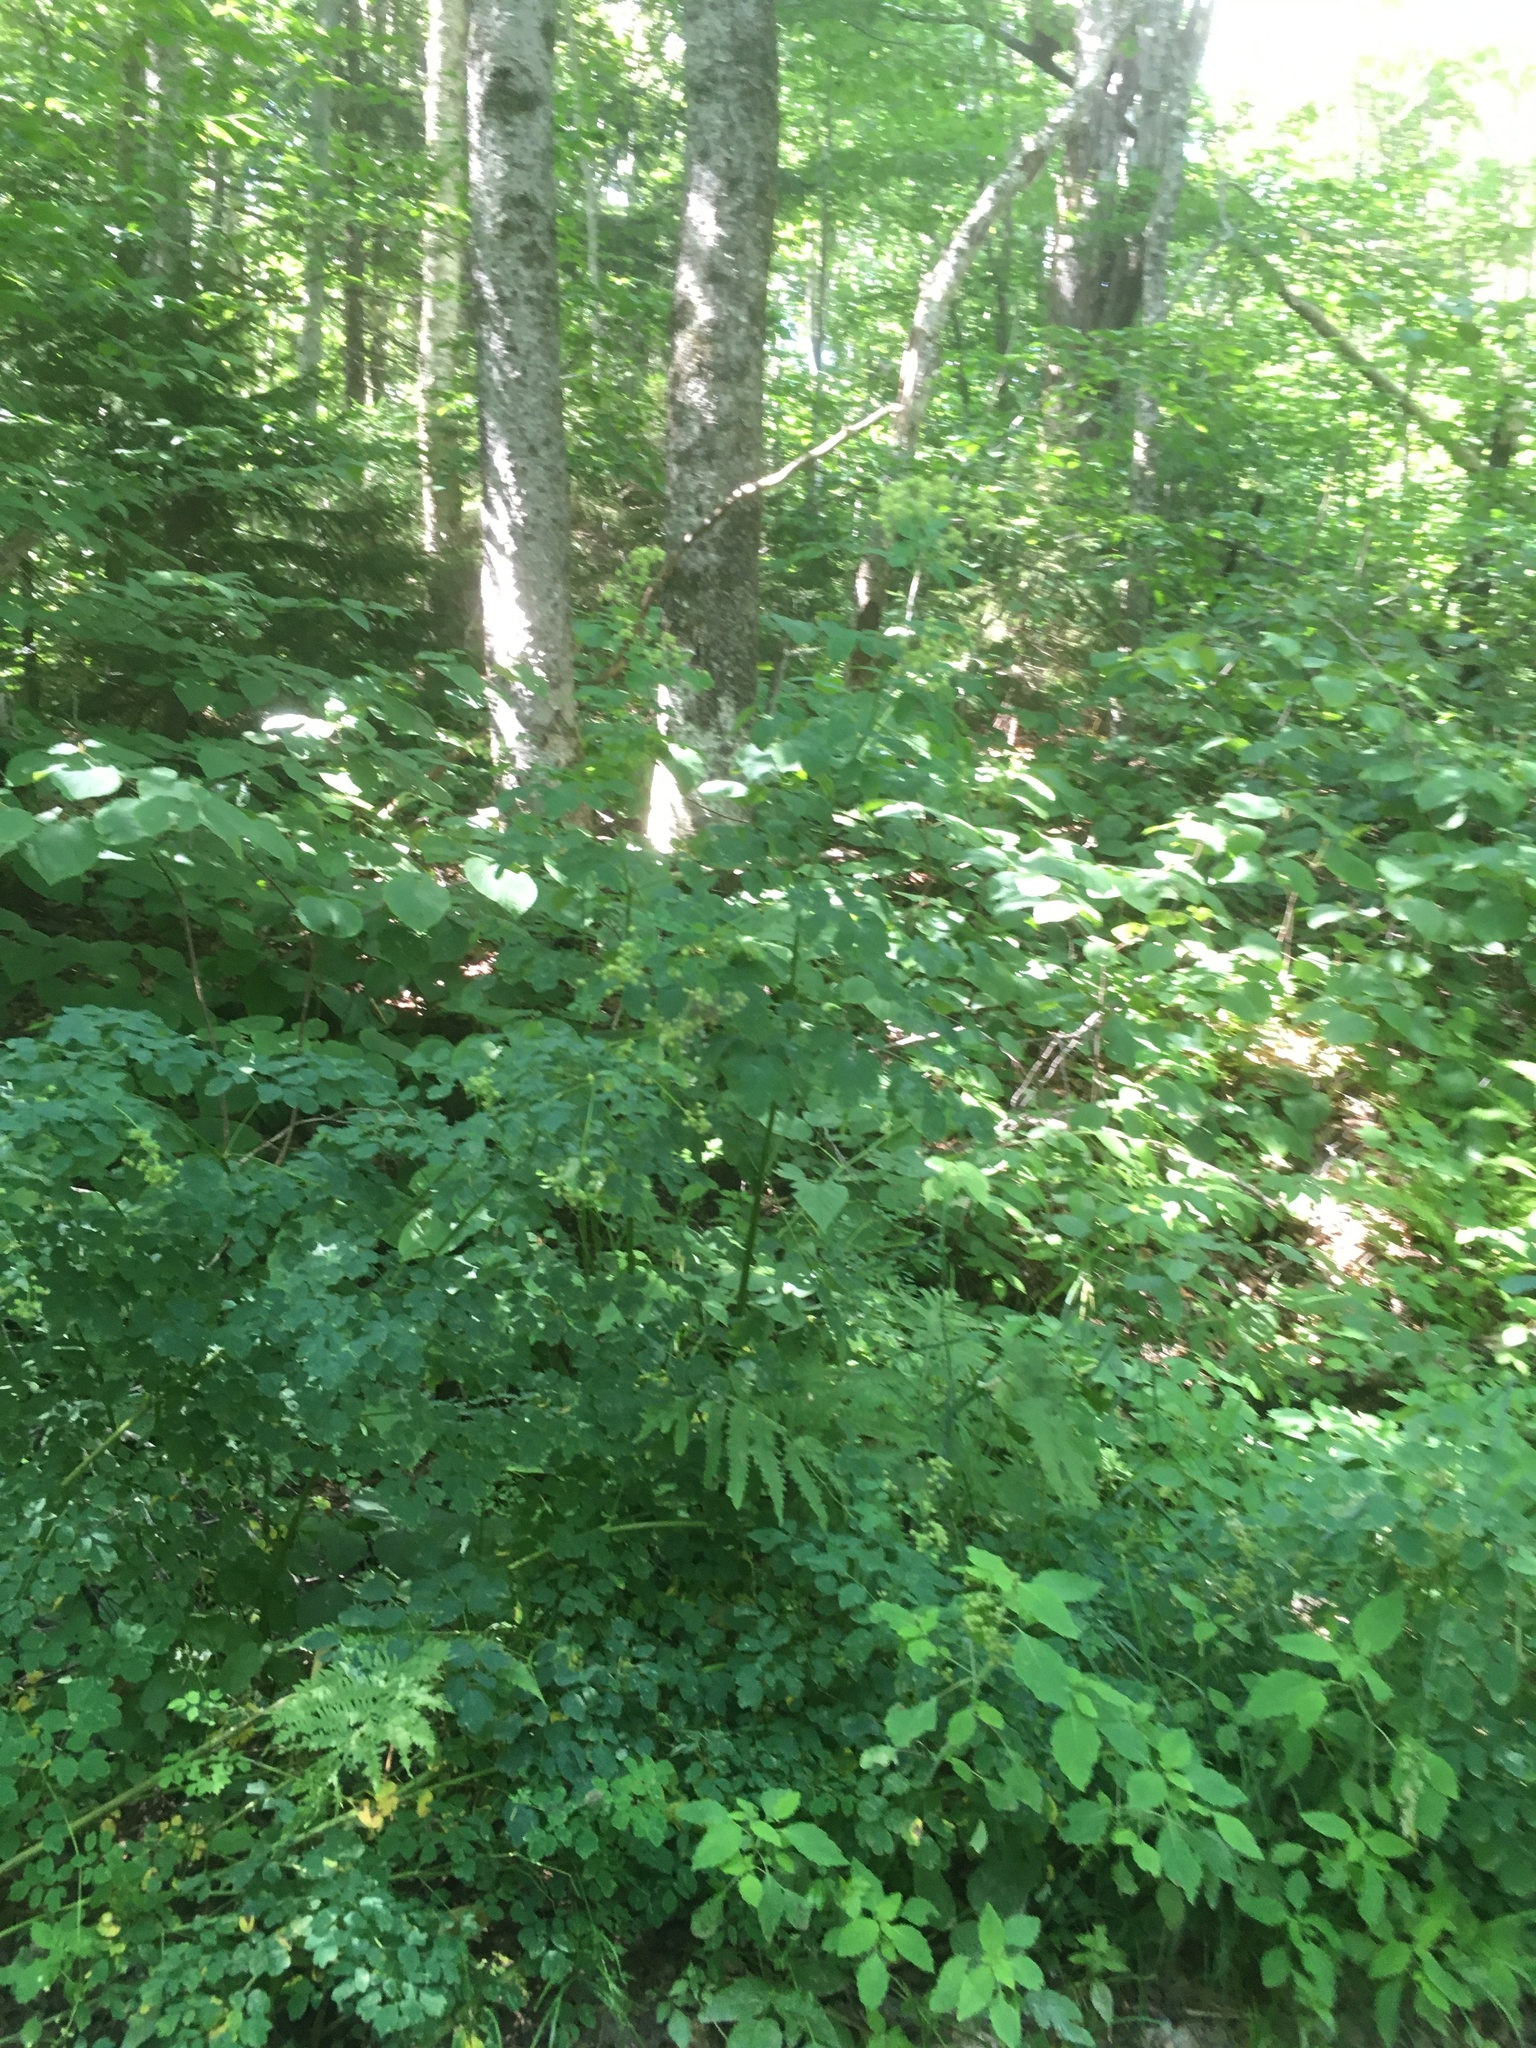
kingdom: Plantae
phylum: Tracheophyta
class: Magnoliopsida
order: Ranunculales
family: Ranunculaceae
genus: Thalictrum
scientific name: Thalictrum pubescens
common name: King-of-the-meadow
